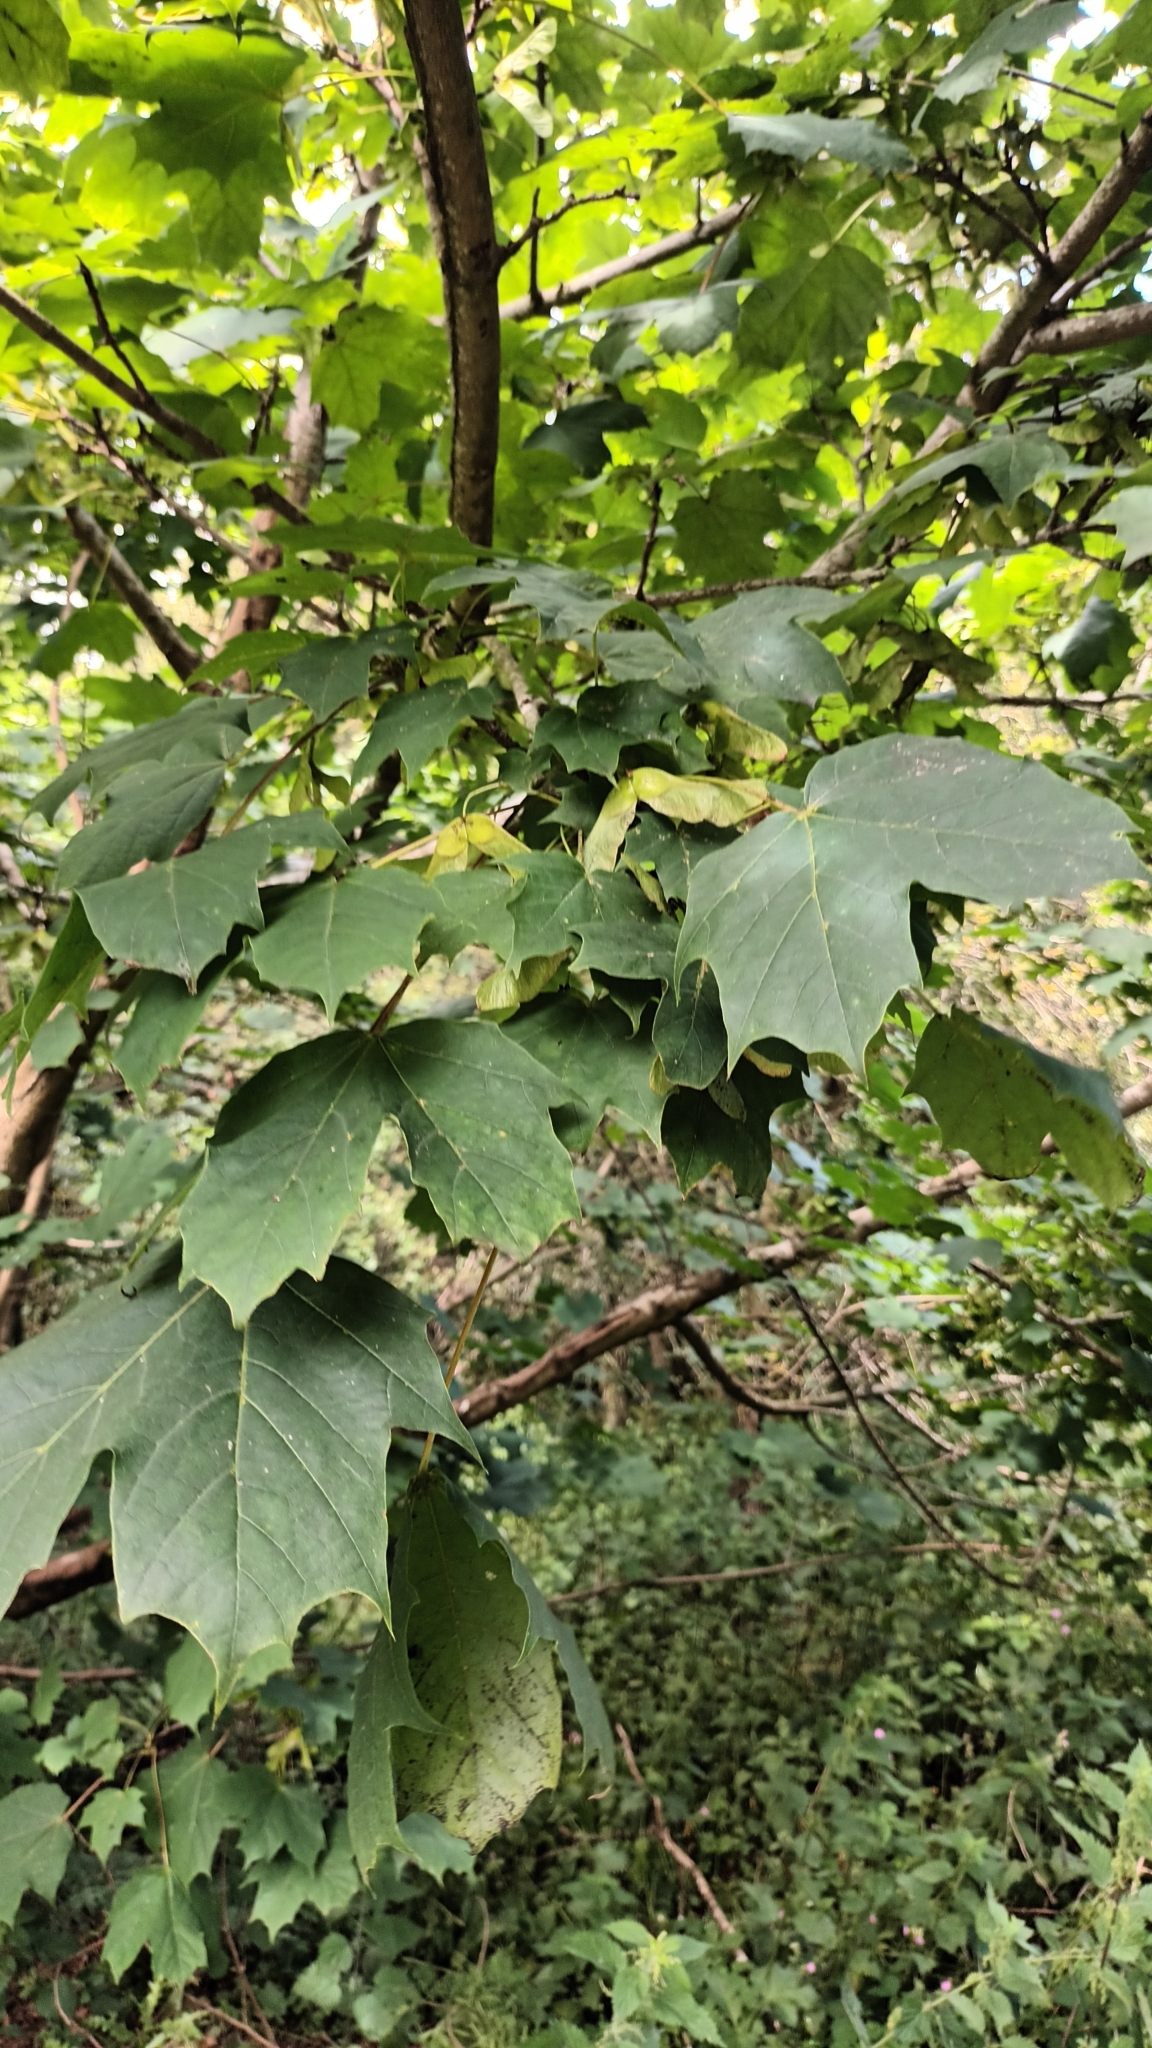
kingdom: Plantae
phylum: Tracheophyta
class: Magnoliopsida
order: Sapindales
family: Sapindaceae
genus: Acer
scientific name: Acer platanoides
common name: Norway maple
